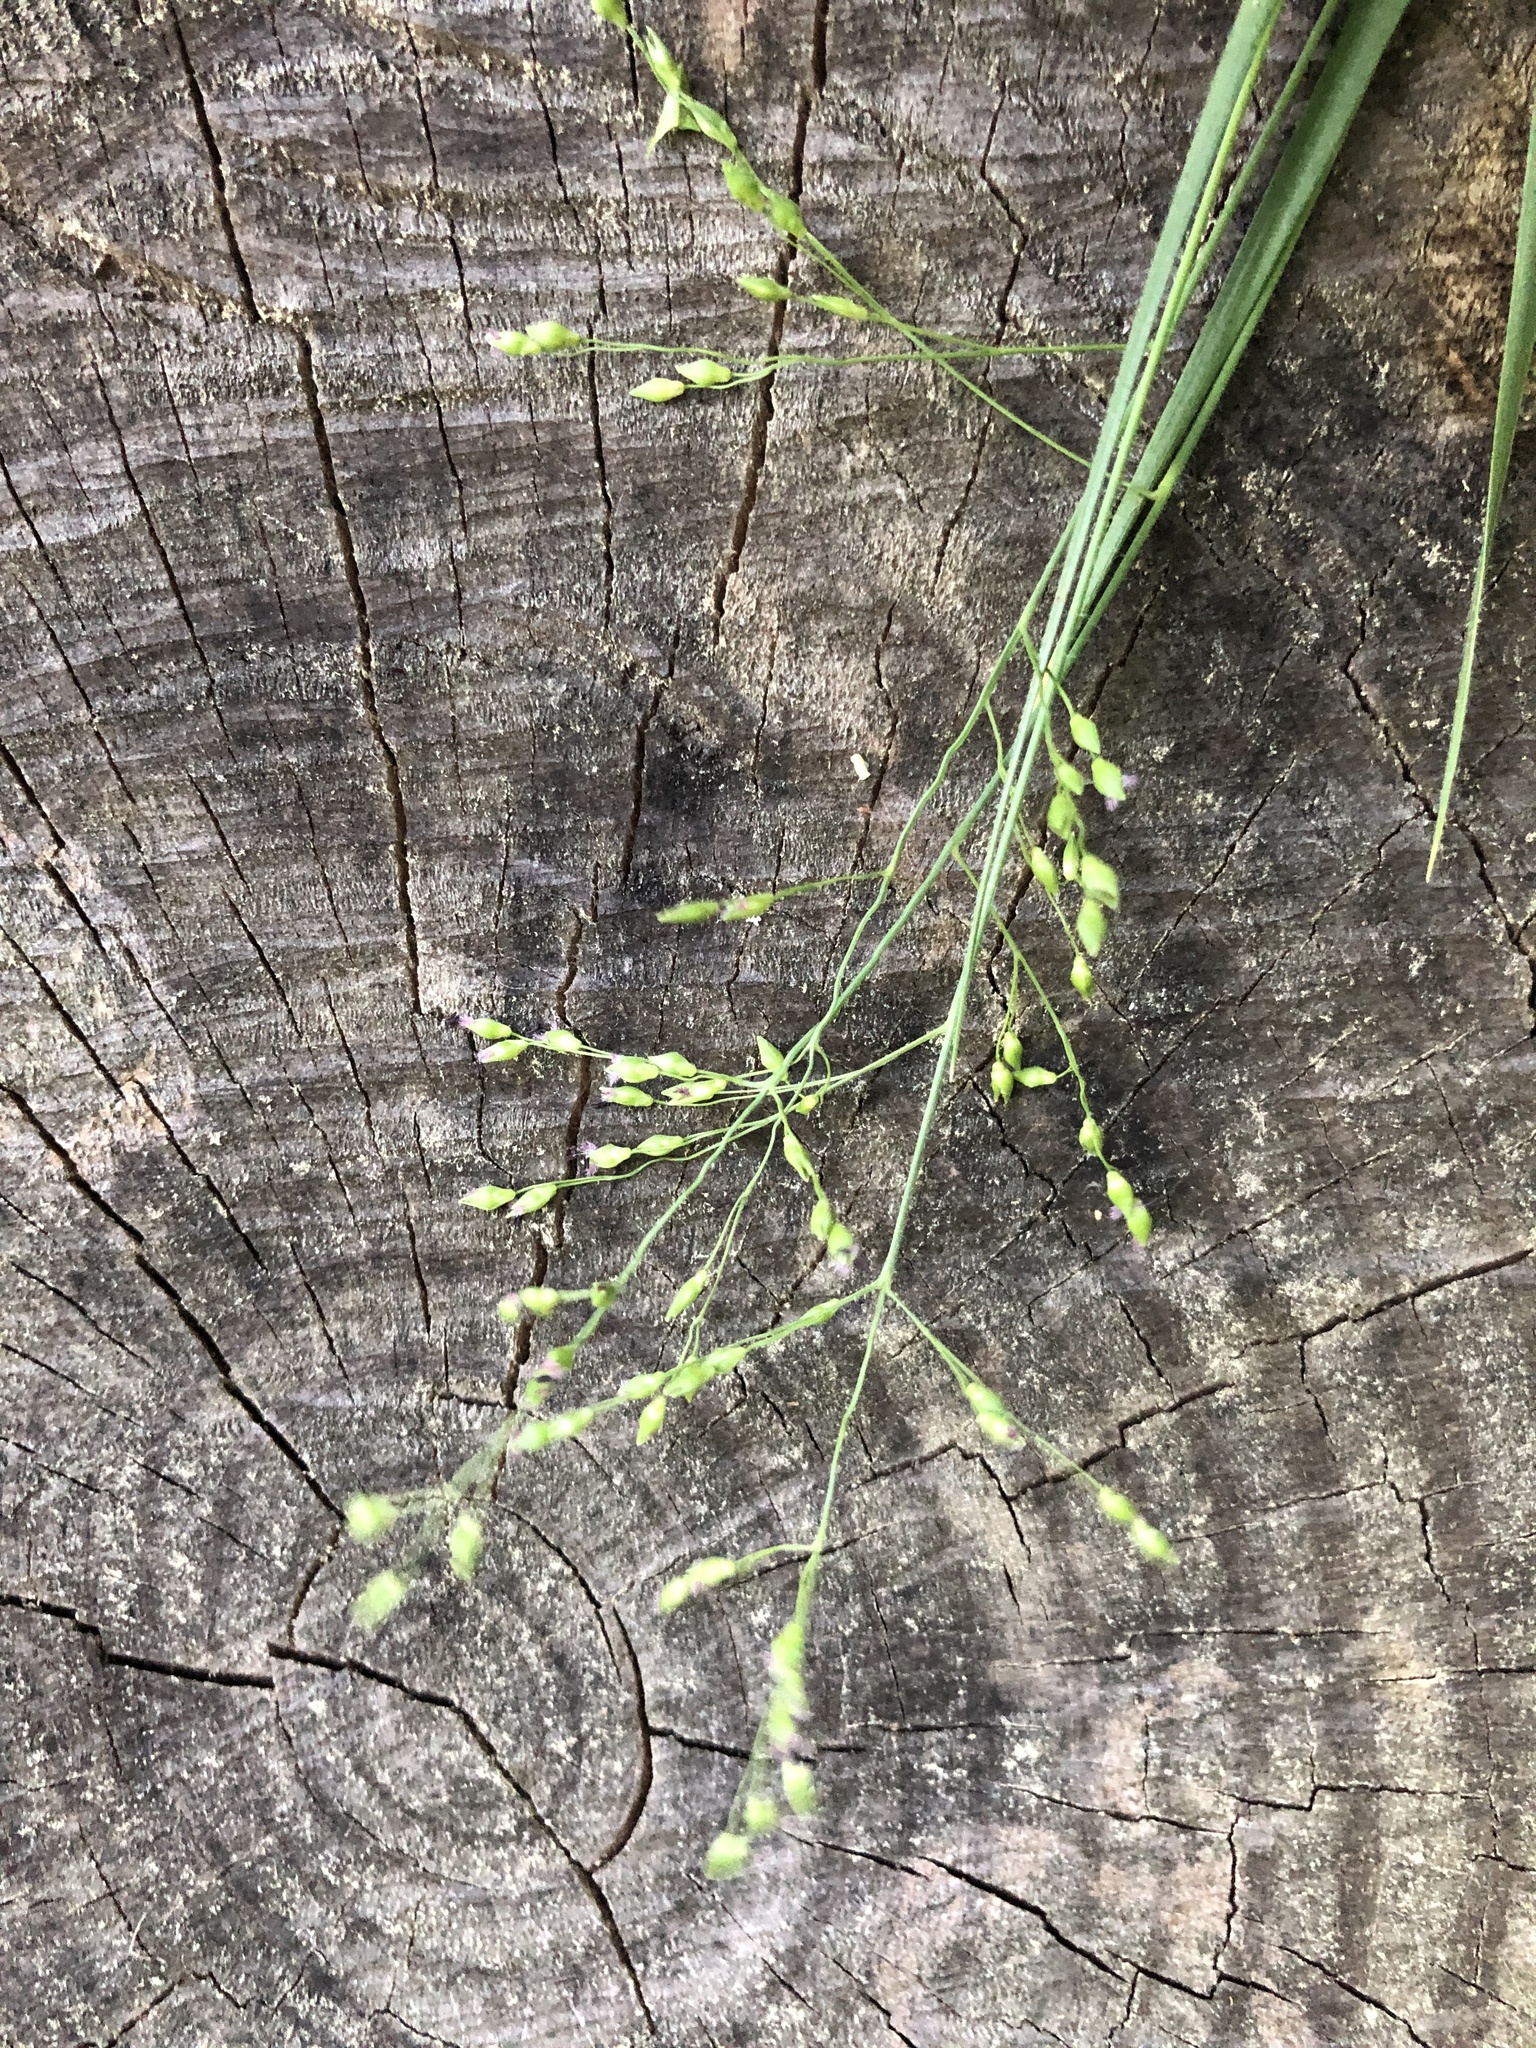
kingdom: Plantae
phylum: Tracheophyta
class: Liliopsida
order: Poales
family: Poaceae
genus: Dichanthelium
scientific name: Dichanthelium angustifolium
